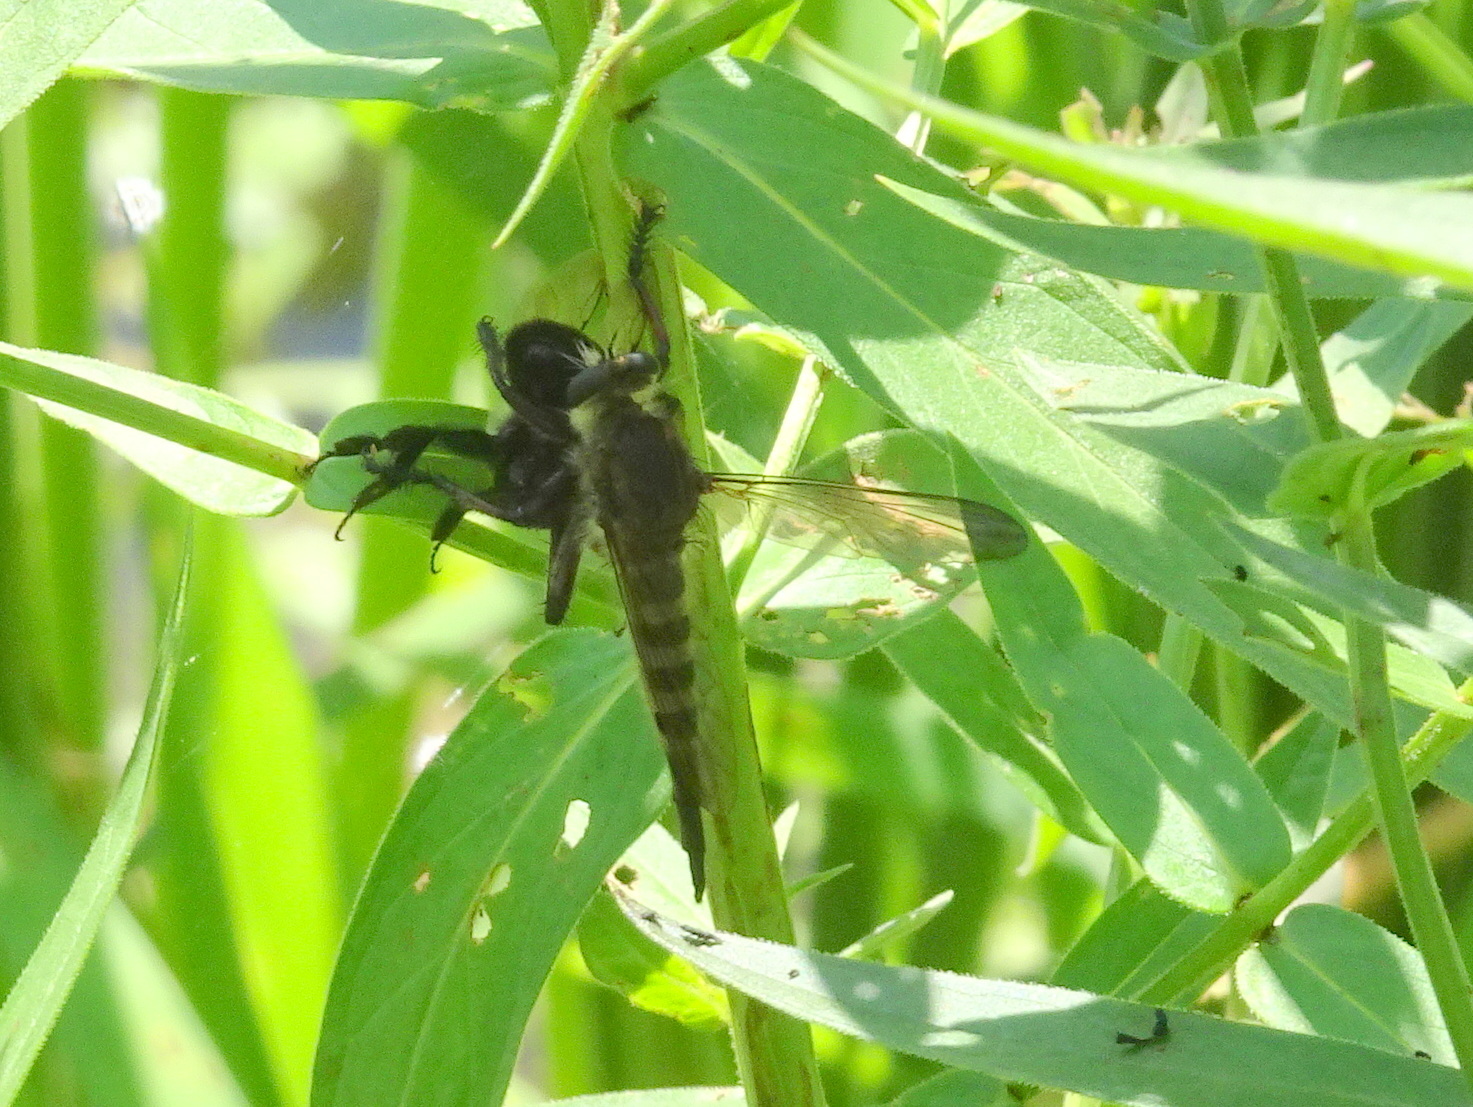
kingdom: Animalia
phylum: Arthropoda
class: Insecta
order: Diptera
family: Asilidae
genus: Promachus
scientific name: Promachus hinei
